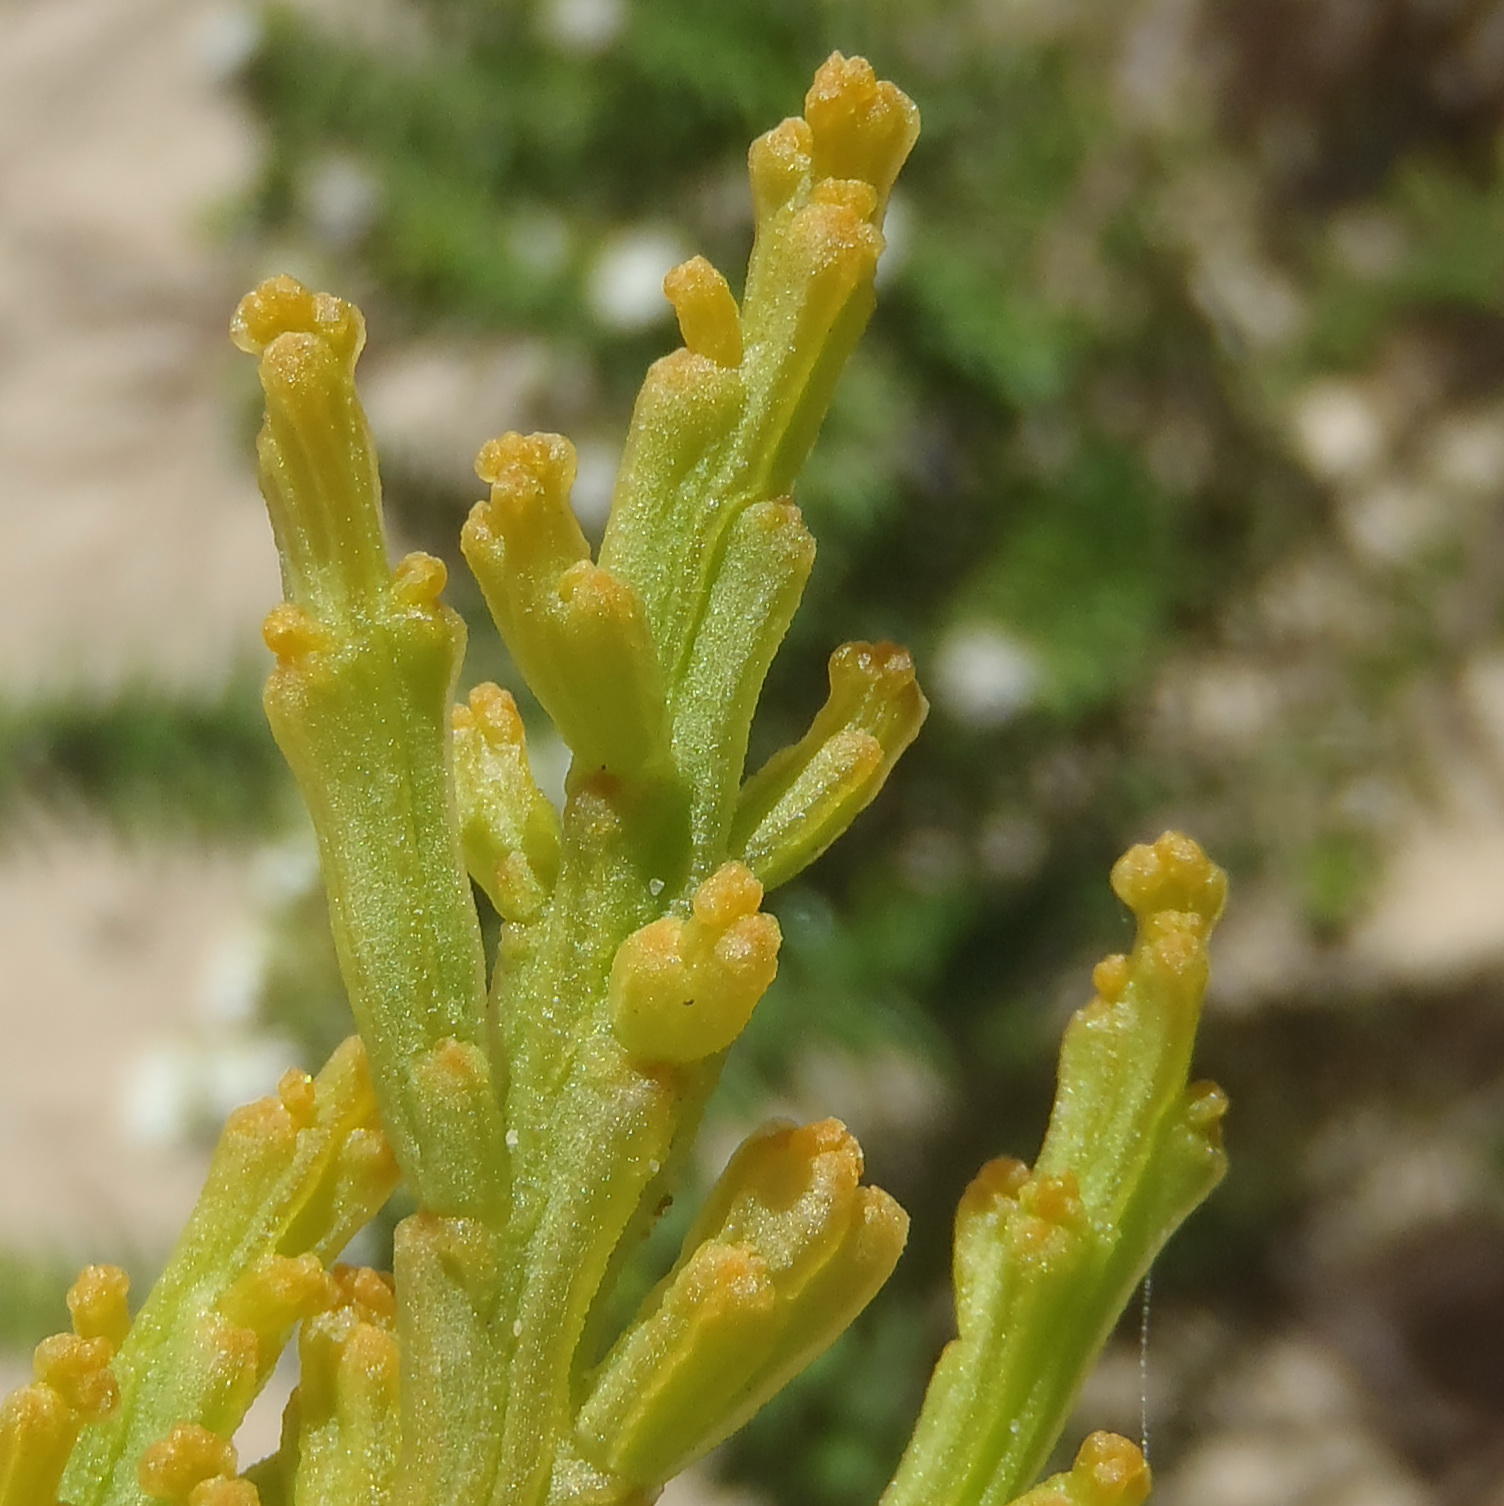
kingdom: Plantae
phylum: Tracheophyta
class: Magnoliopsida
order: Santalales
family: Thesiaceae
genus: Thesium
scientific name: Thesium fragile
